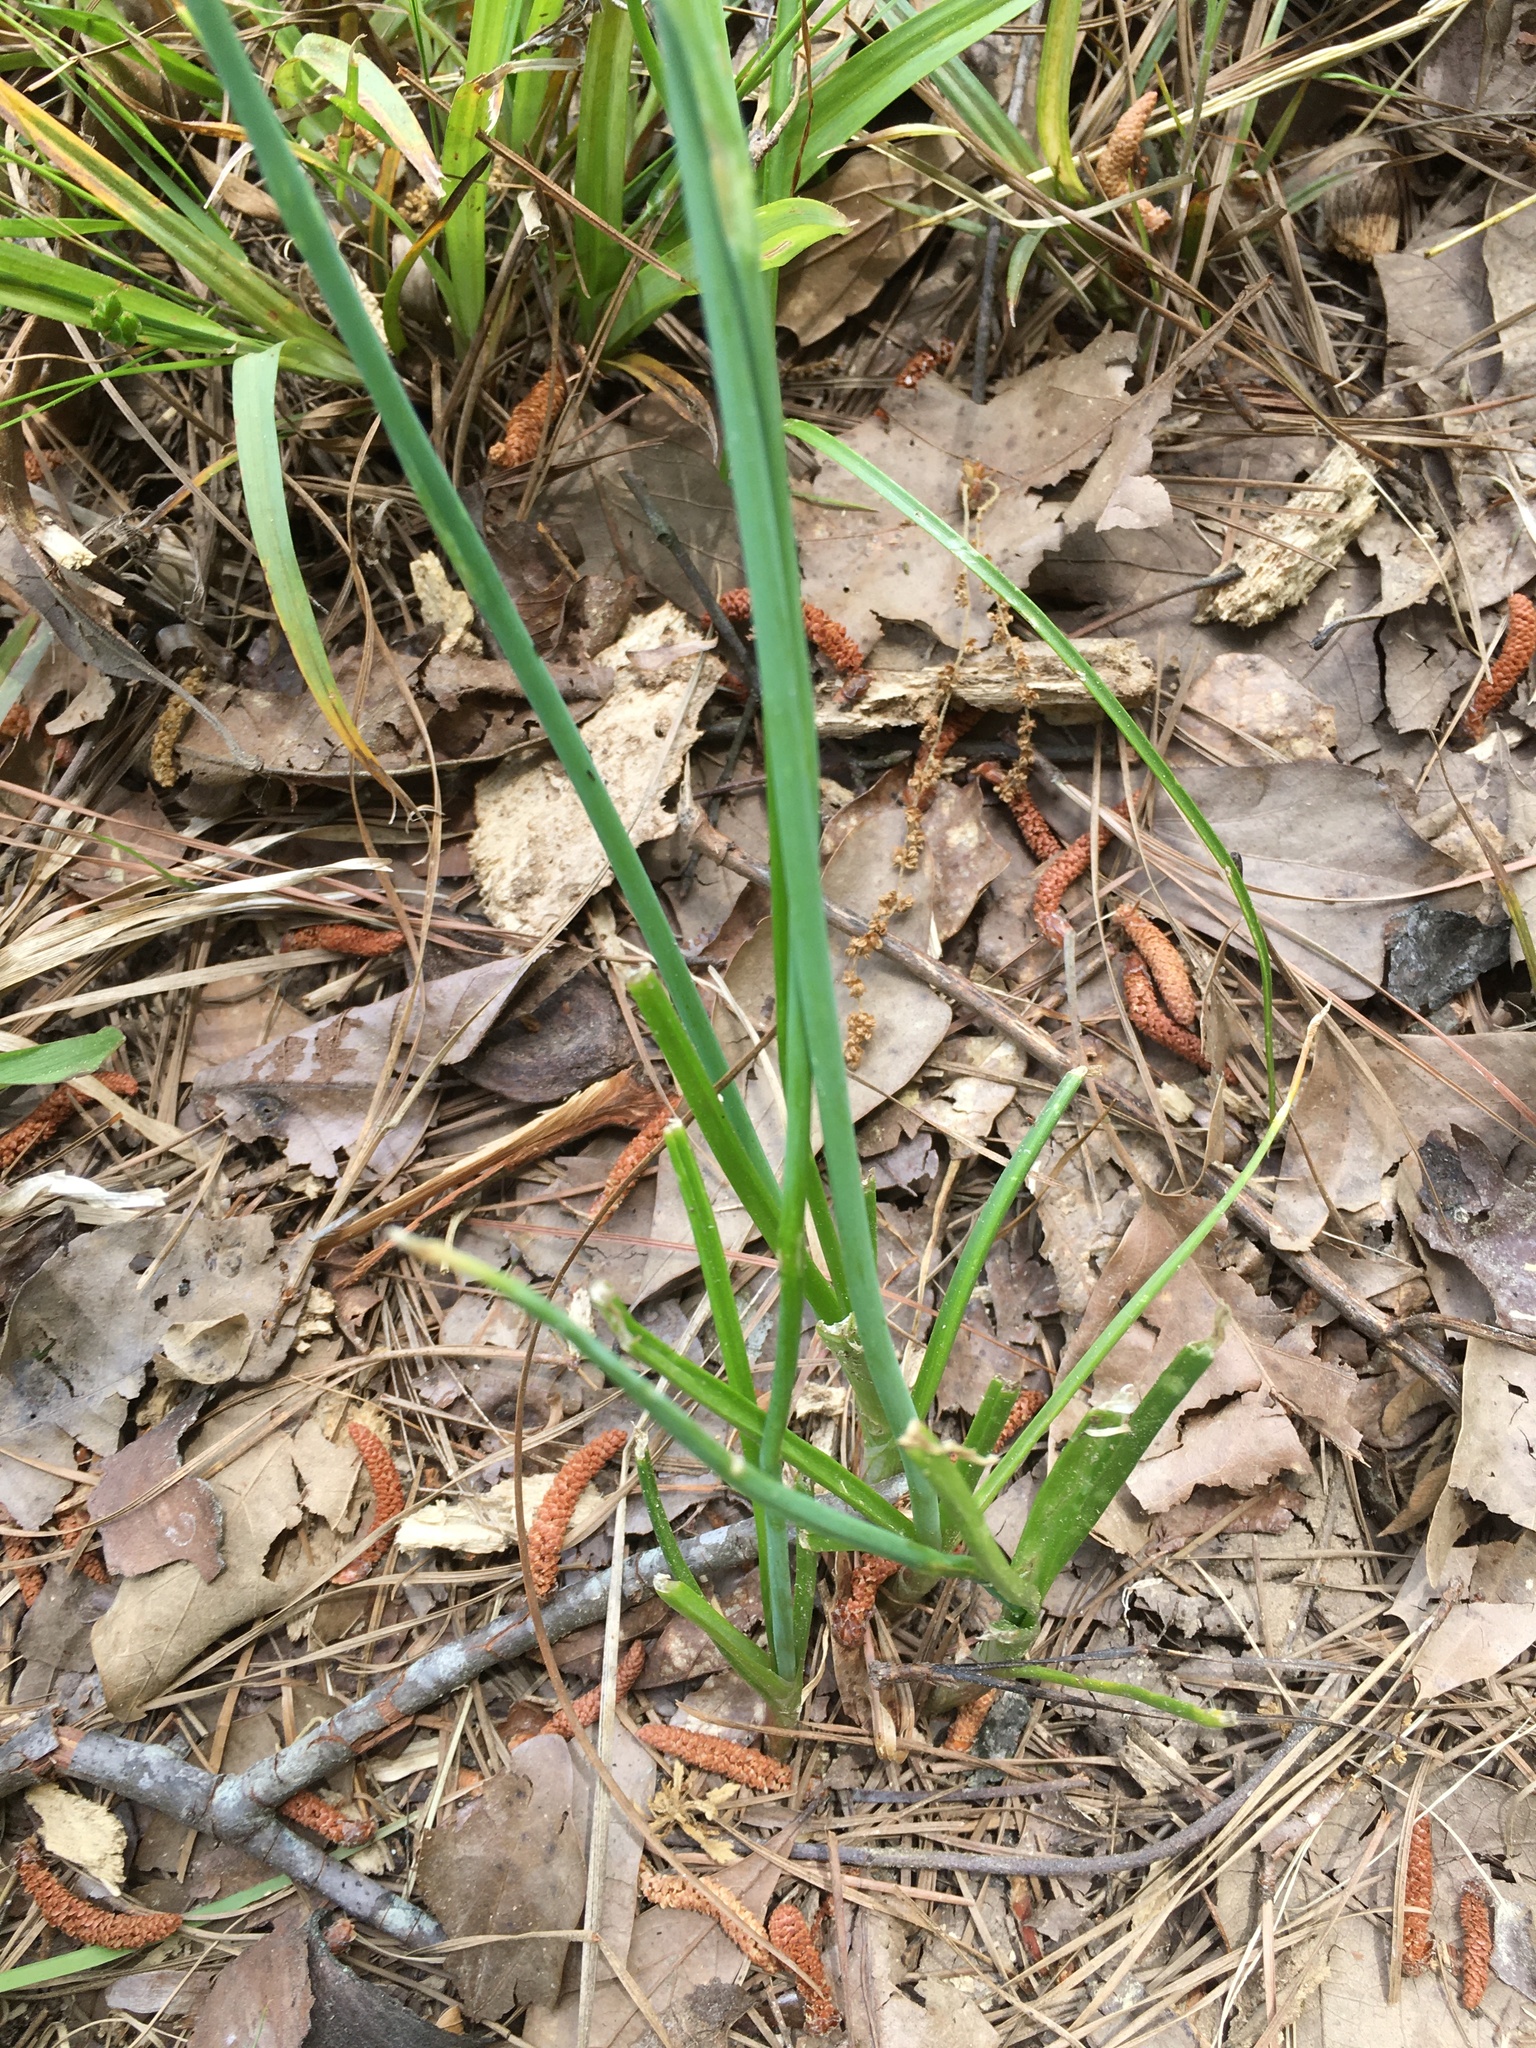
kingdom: Plantae
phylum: Tracheophyta
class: Liliopsida
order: Asparagales
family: Amaryllidaceae
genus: Allium
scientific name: Allium vineale
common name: Crow garlic
